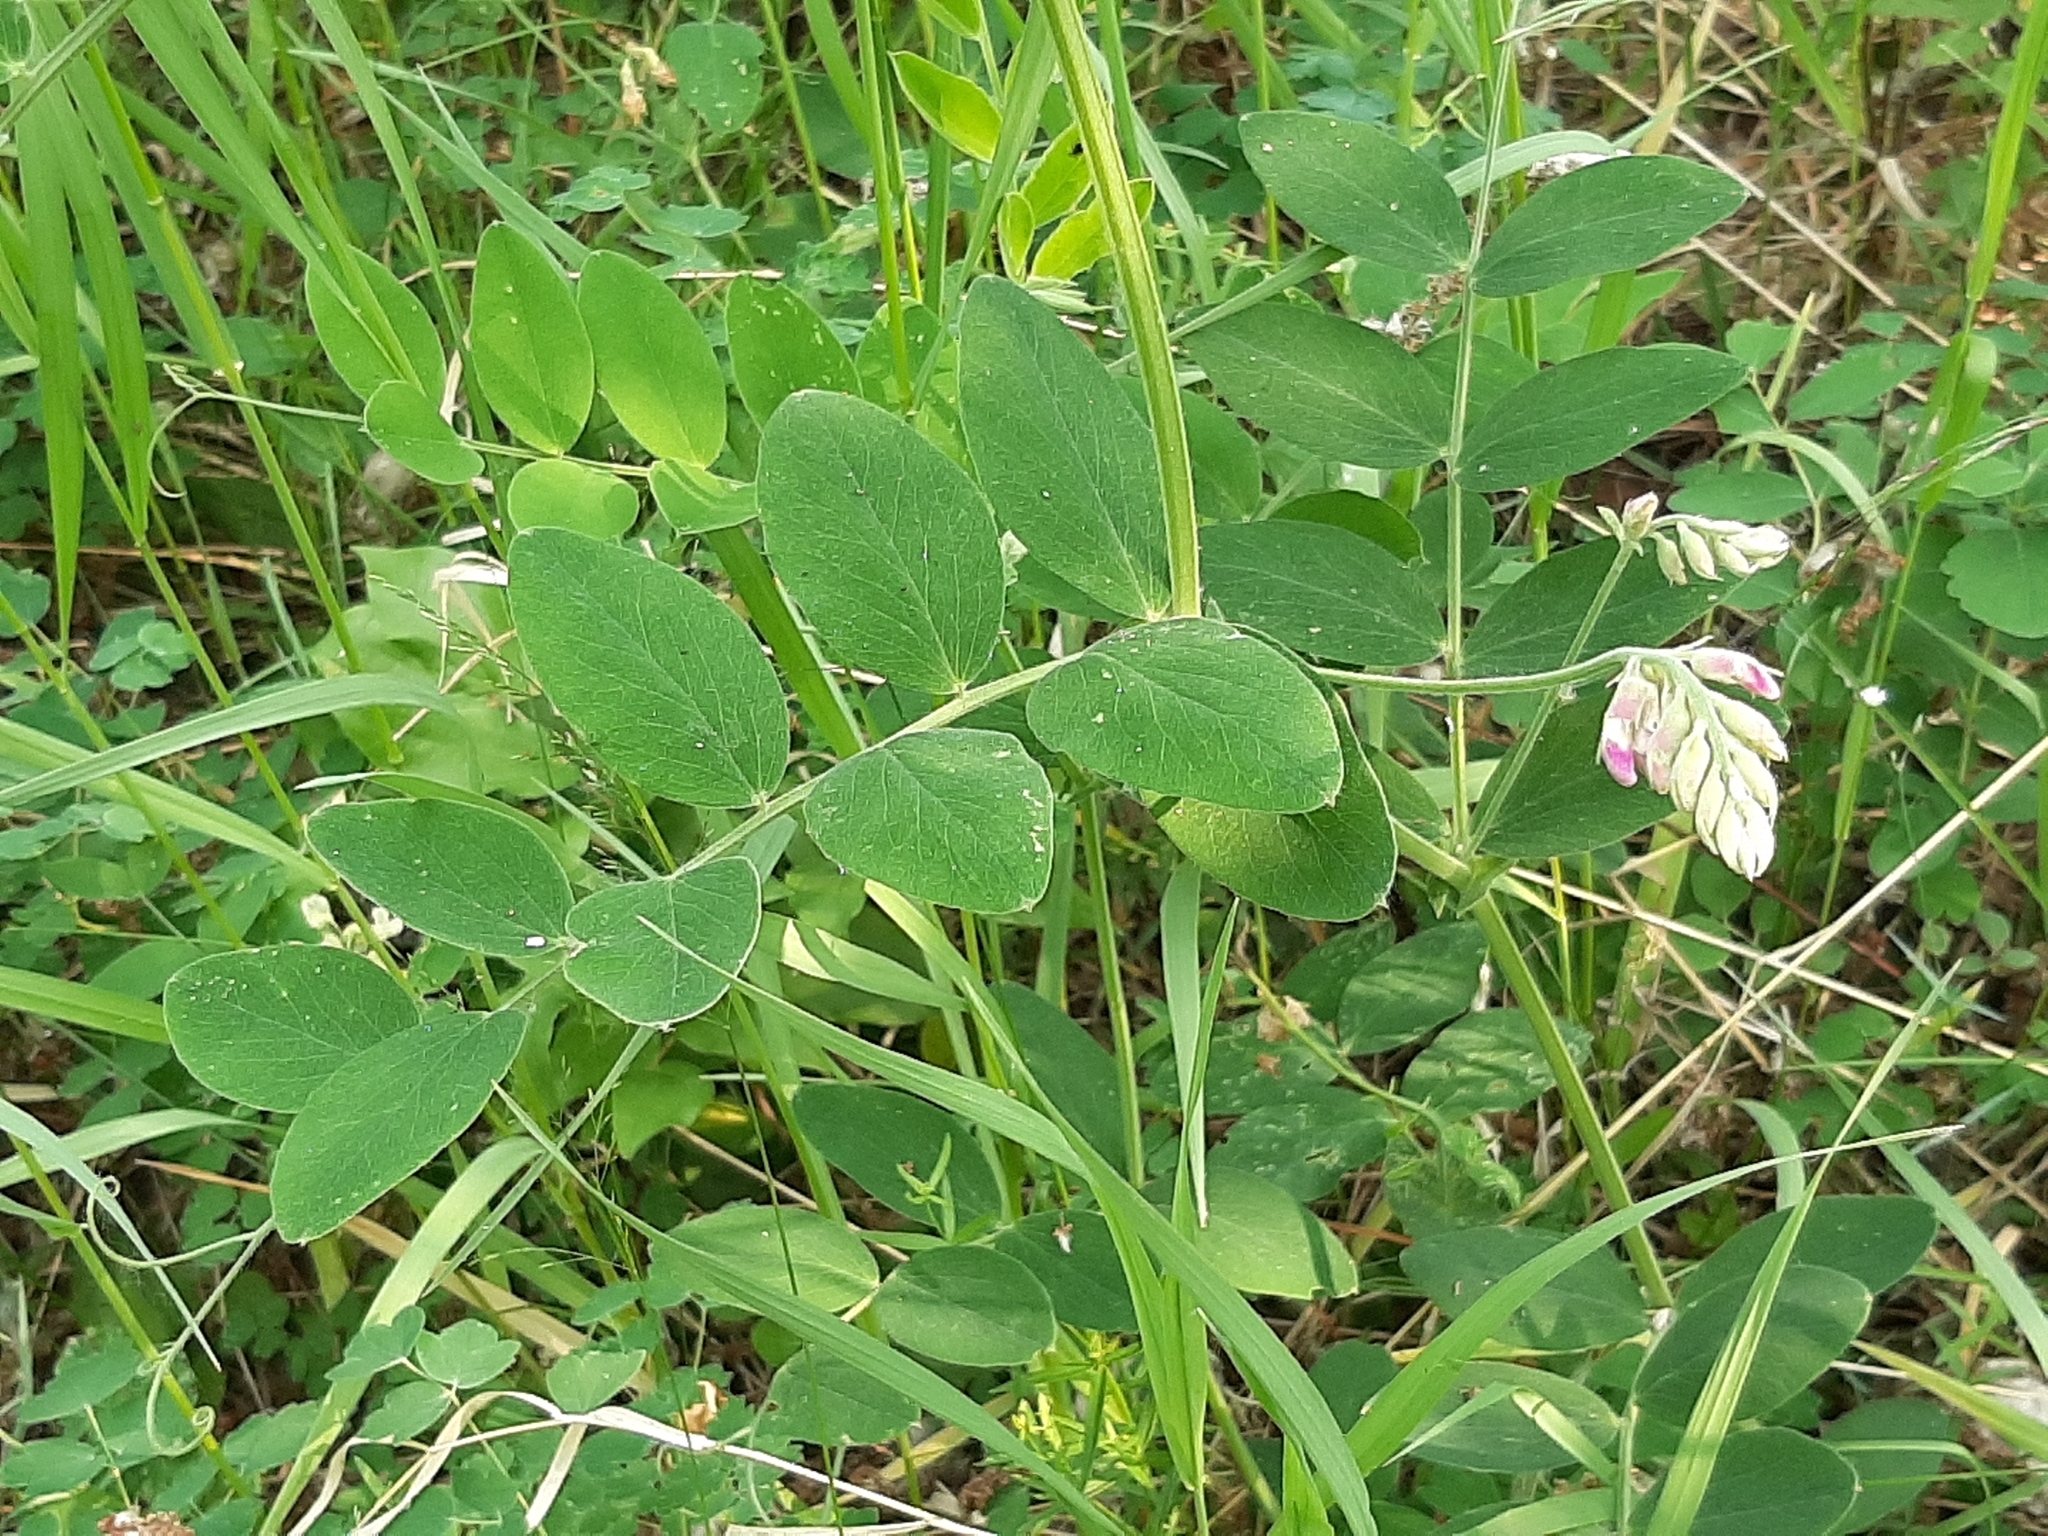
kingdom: Plantae
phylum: Tracheophyta
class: Magnoliopsida
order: Fabales
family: Fabaceae
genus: Lathyrus
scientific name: Lathyrus venosus
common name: Forest-pea
